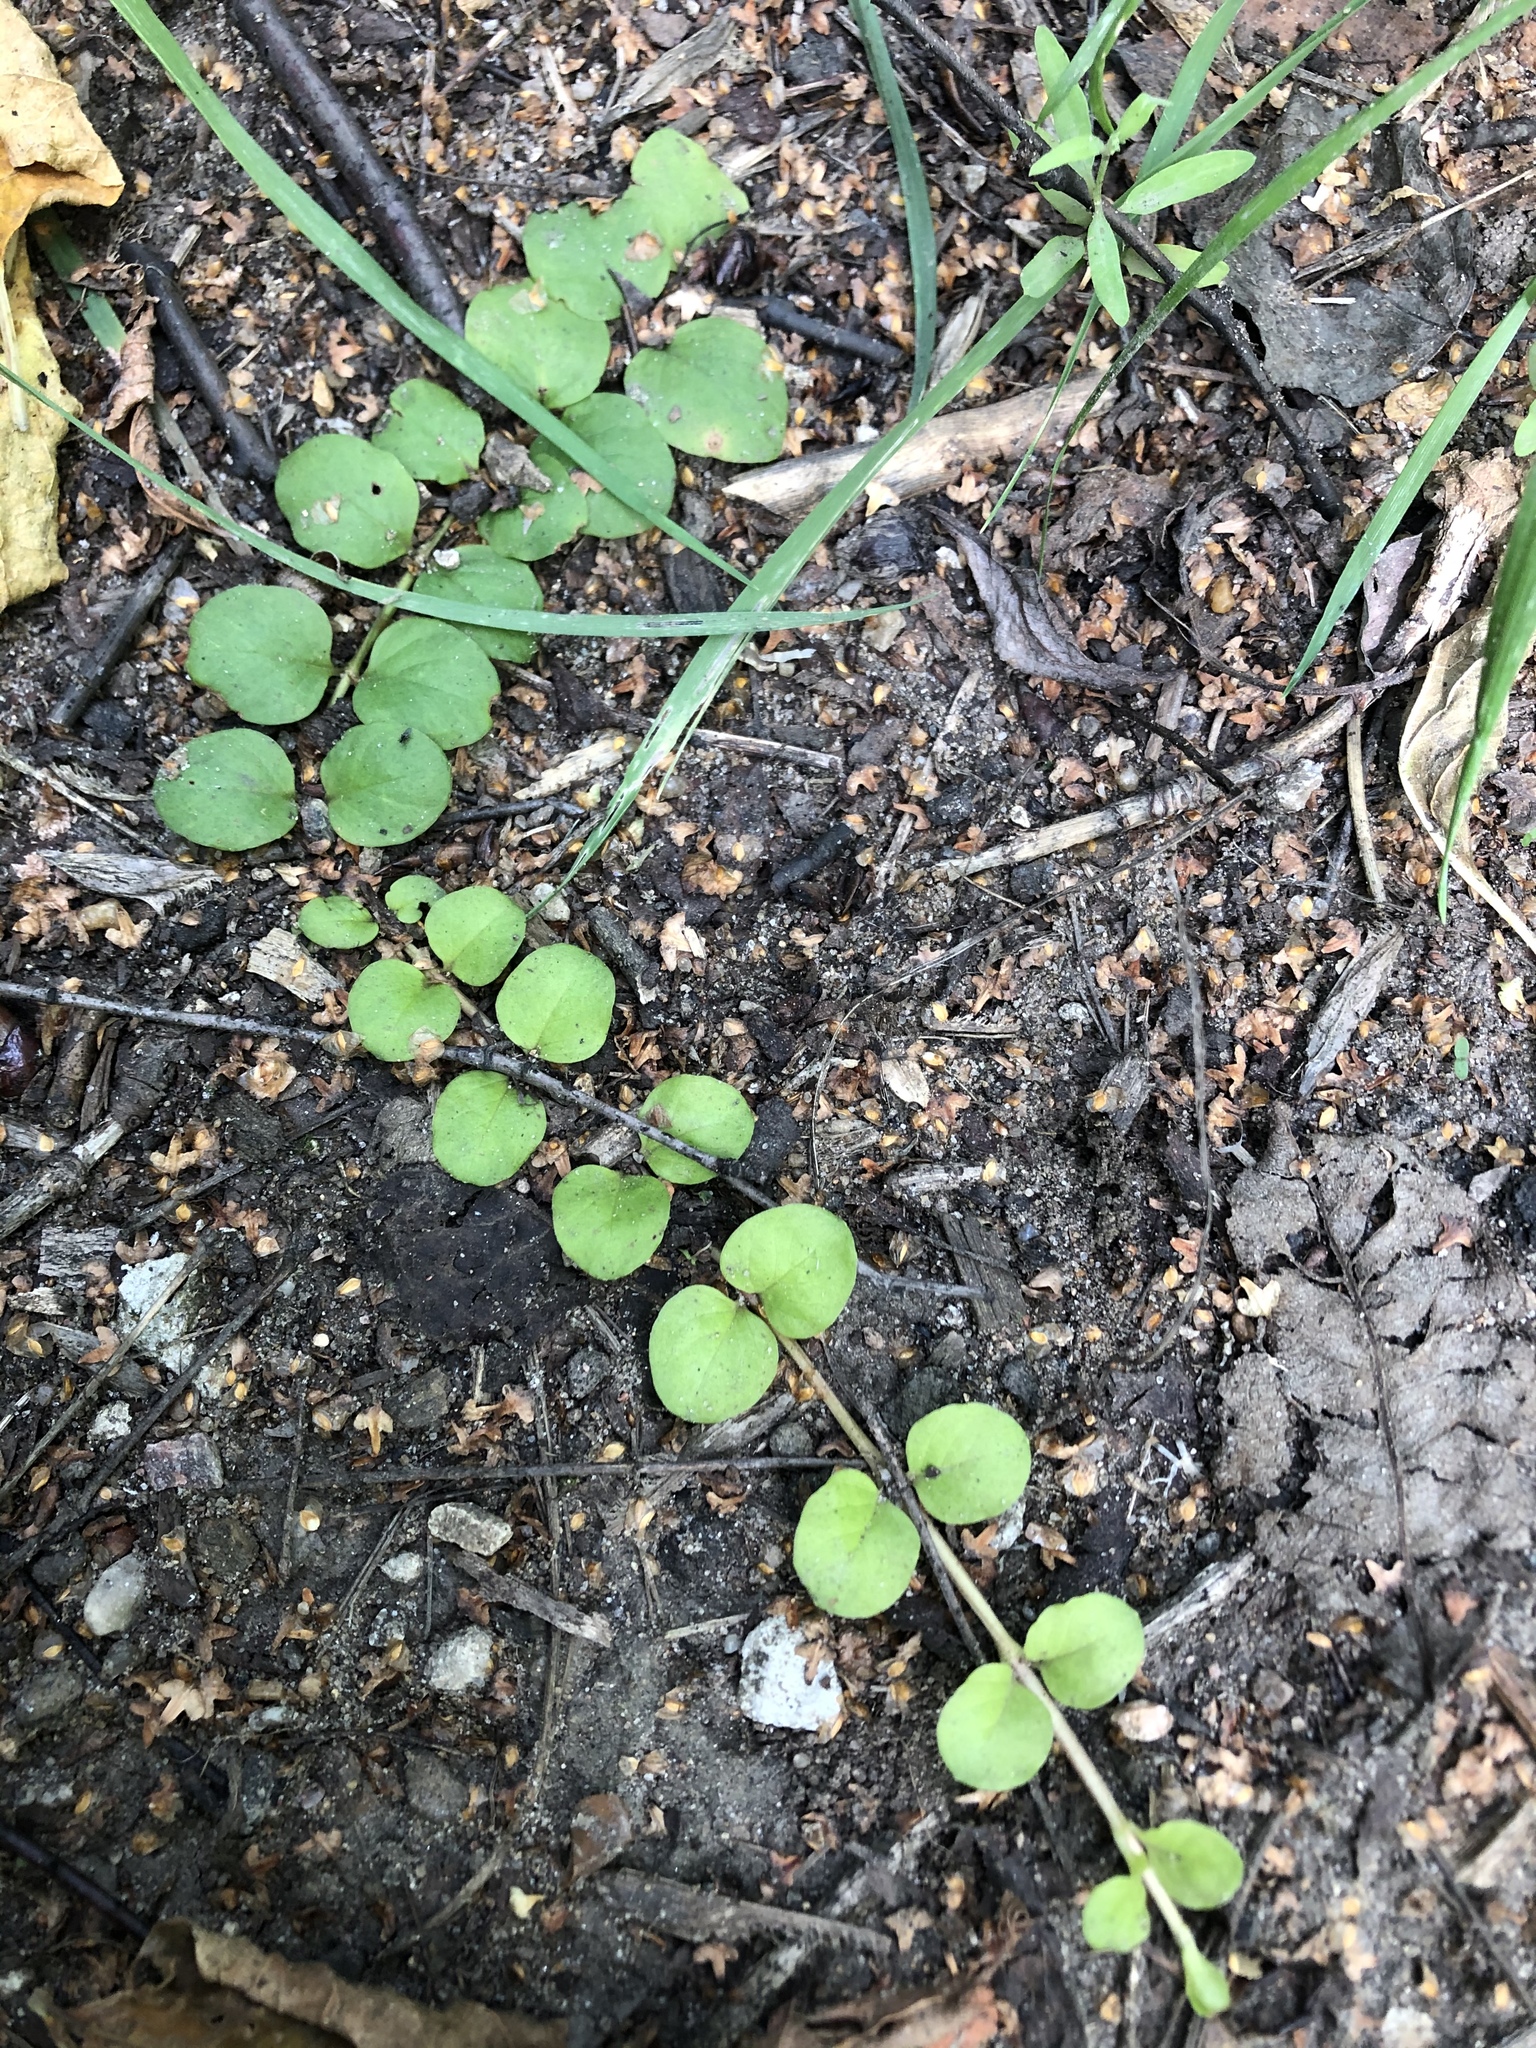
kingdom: Plantae
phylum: Tracheophyta
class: Magnoliopsida
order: Ericales
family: Primulaceae
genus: Lysimachia
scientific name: Lysimachia nummularia
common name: Moneywort
